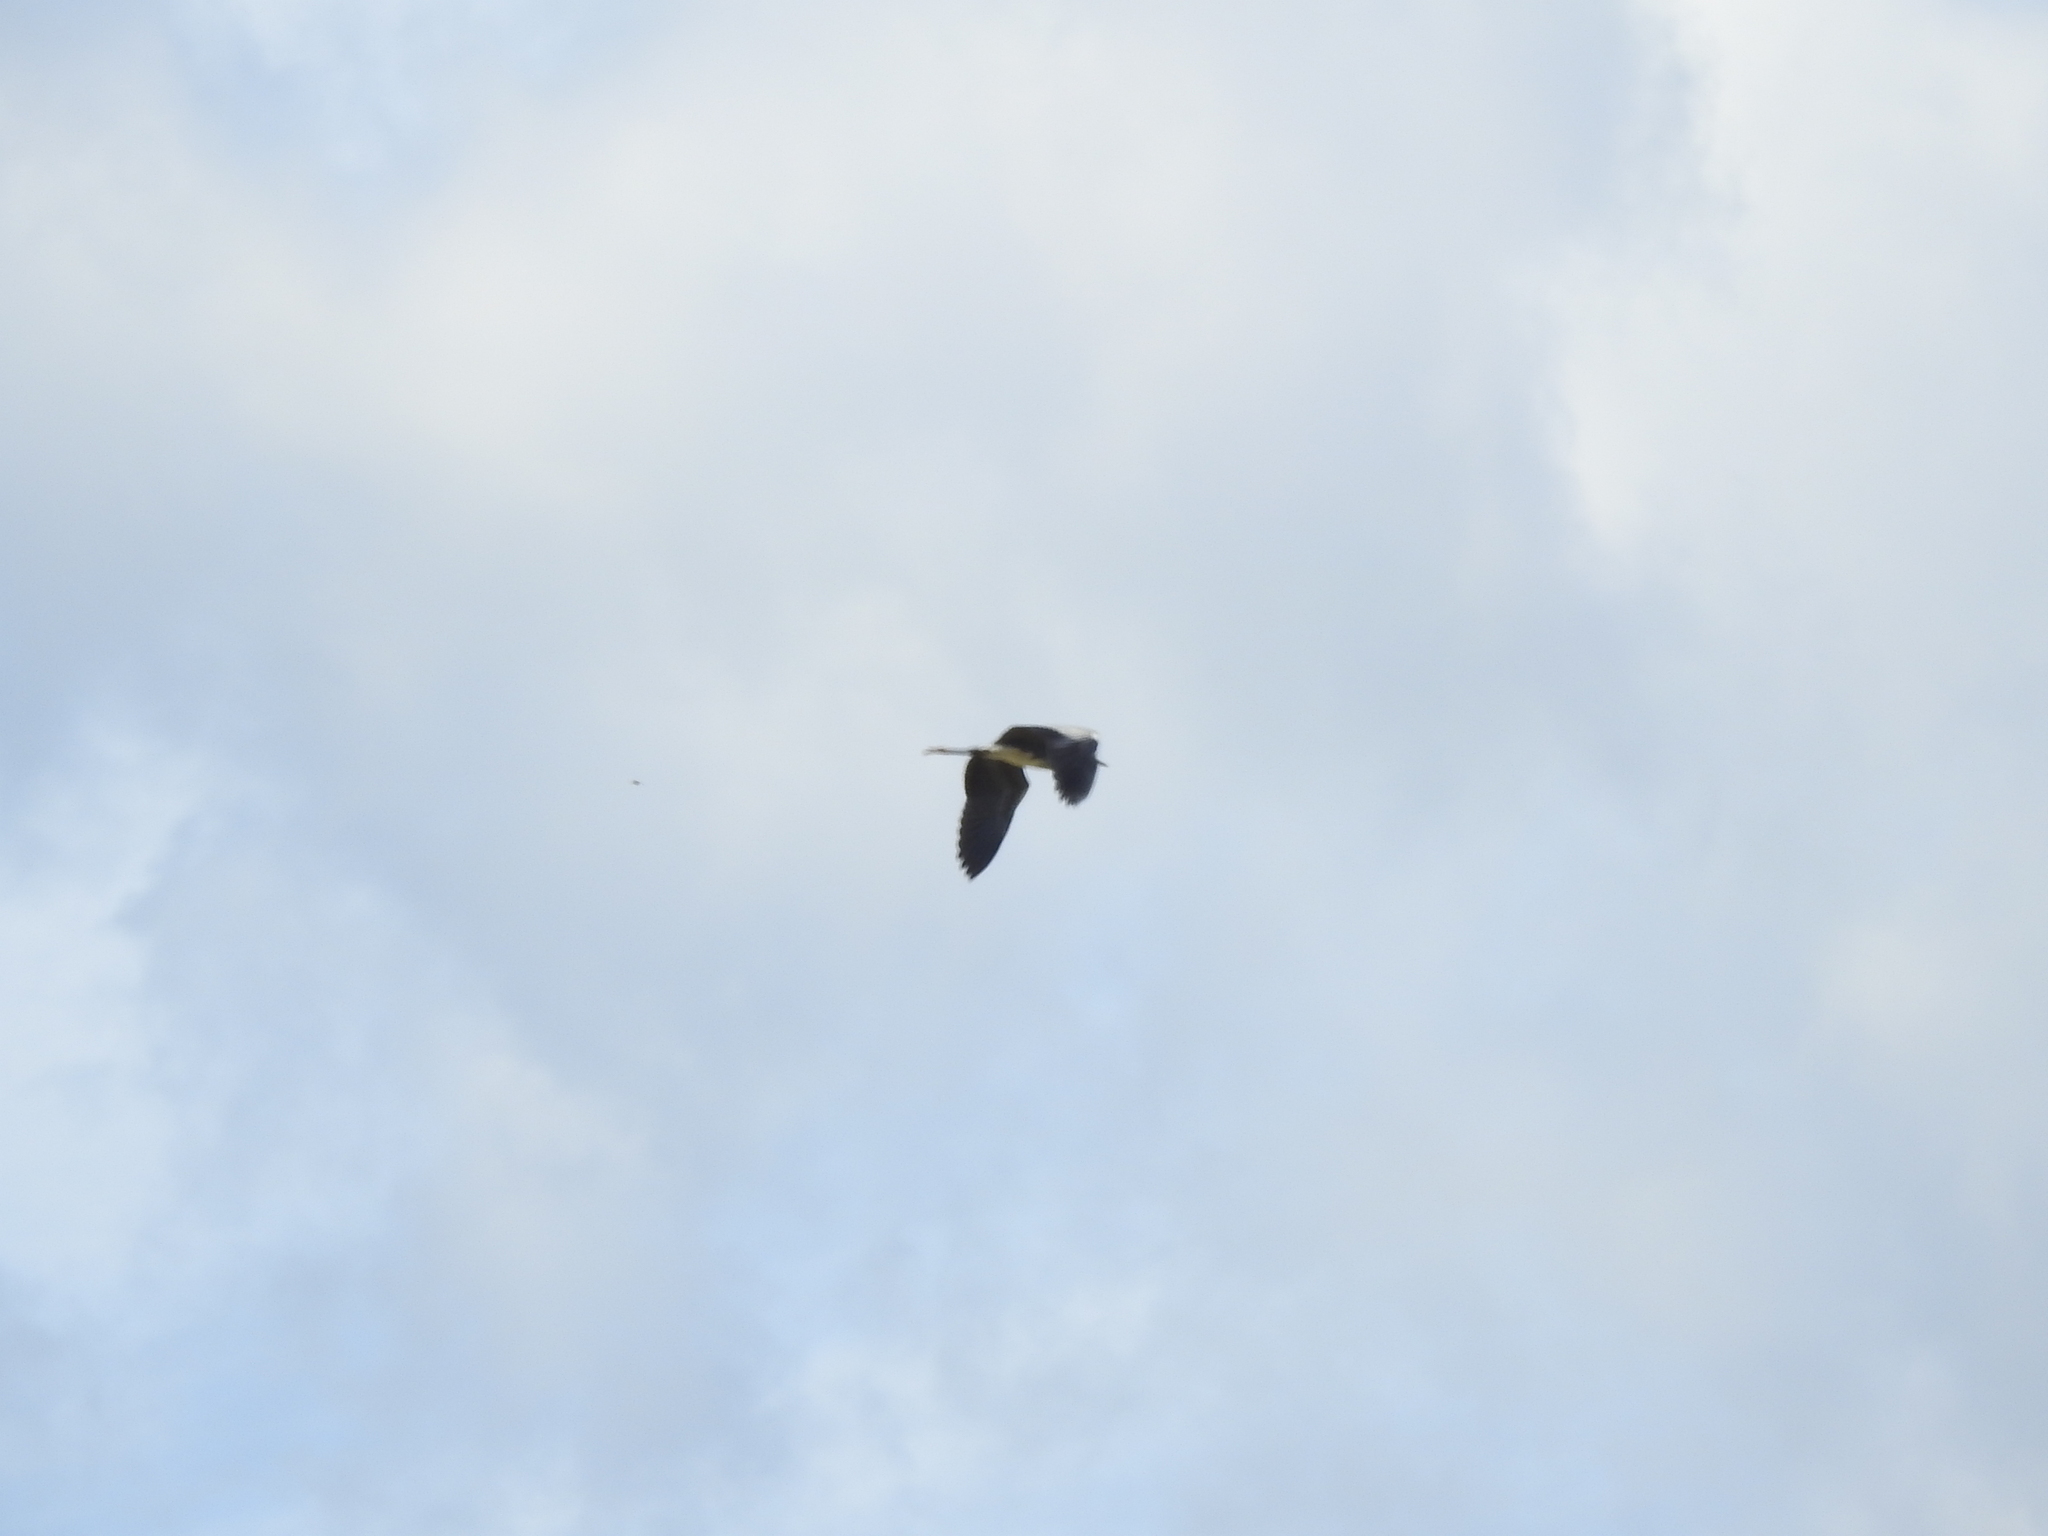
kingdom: Animalia
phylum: Chordata
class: Aves
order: Pelecaniformes
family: Ardeidae
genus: Ardea
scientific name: Ardea cinerea
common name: Grey heron
